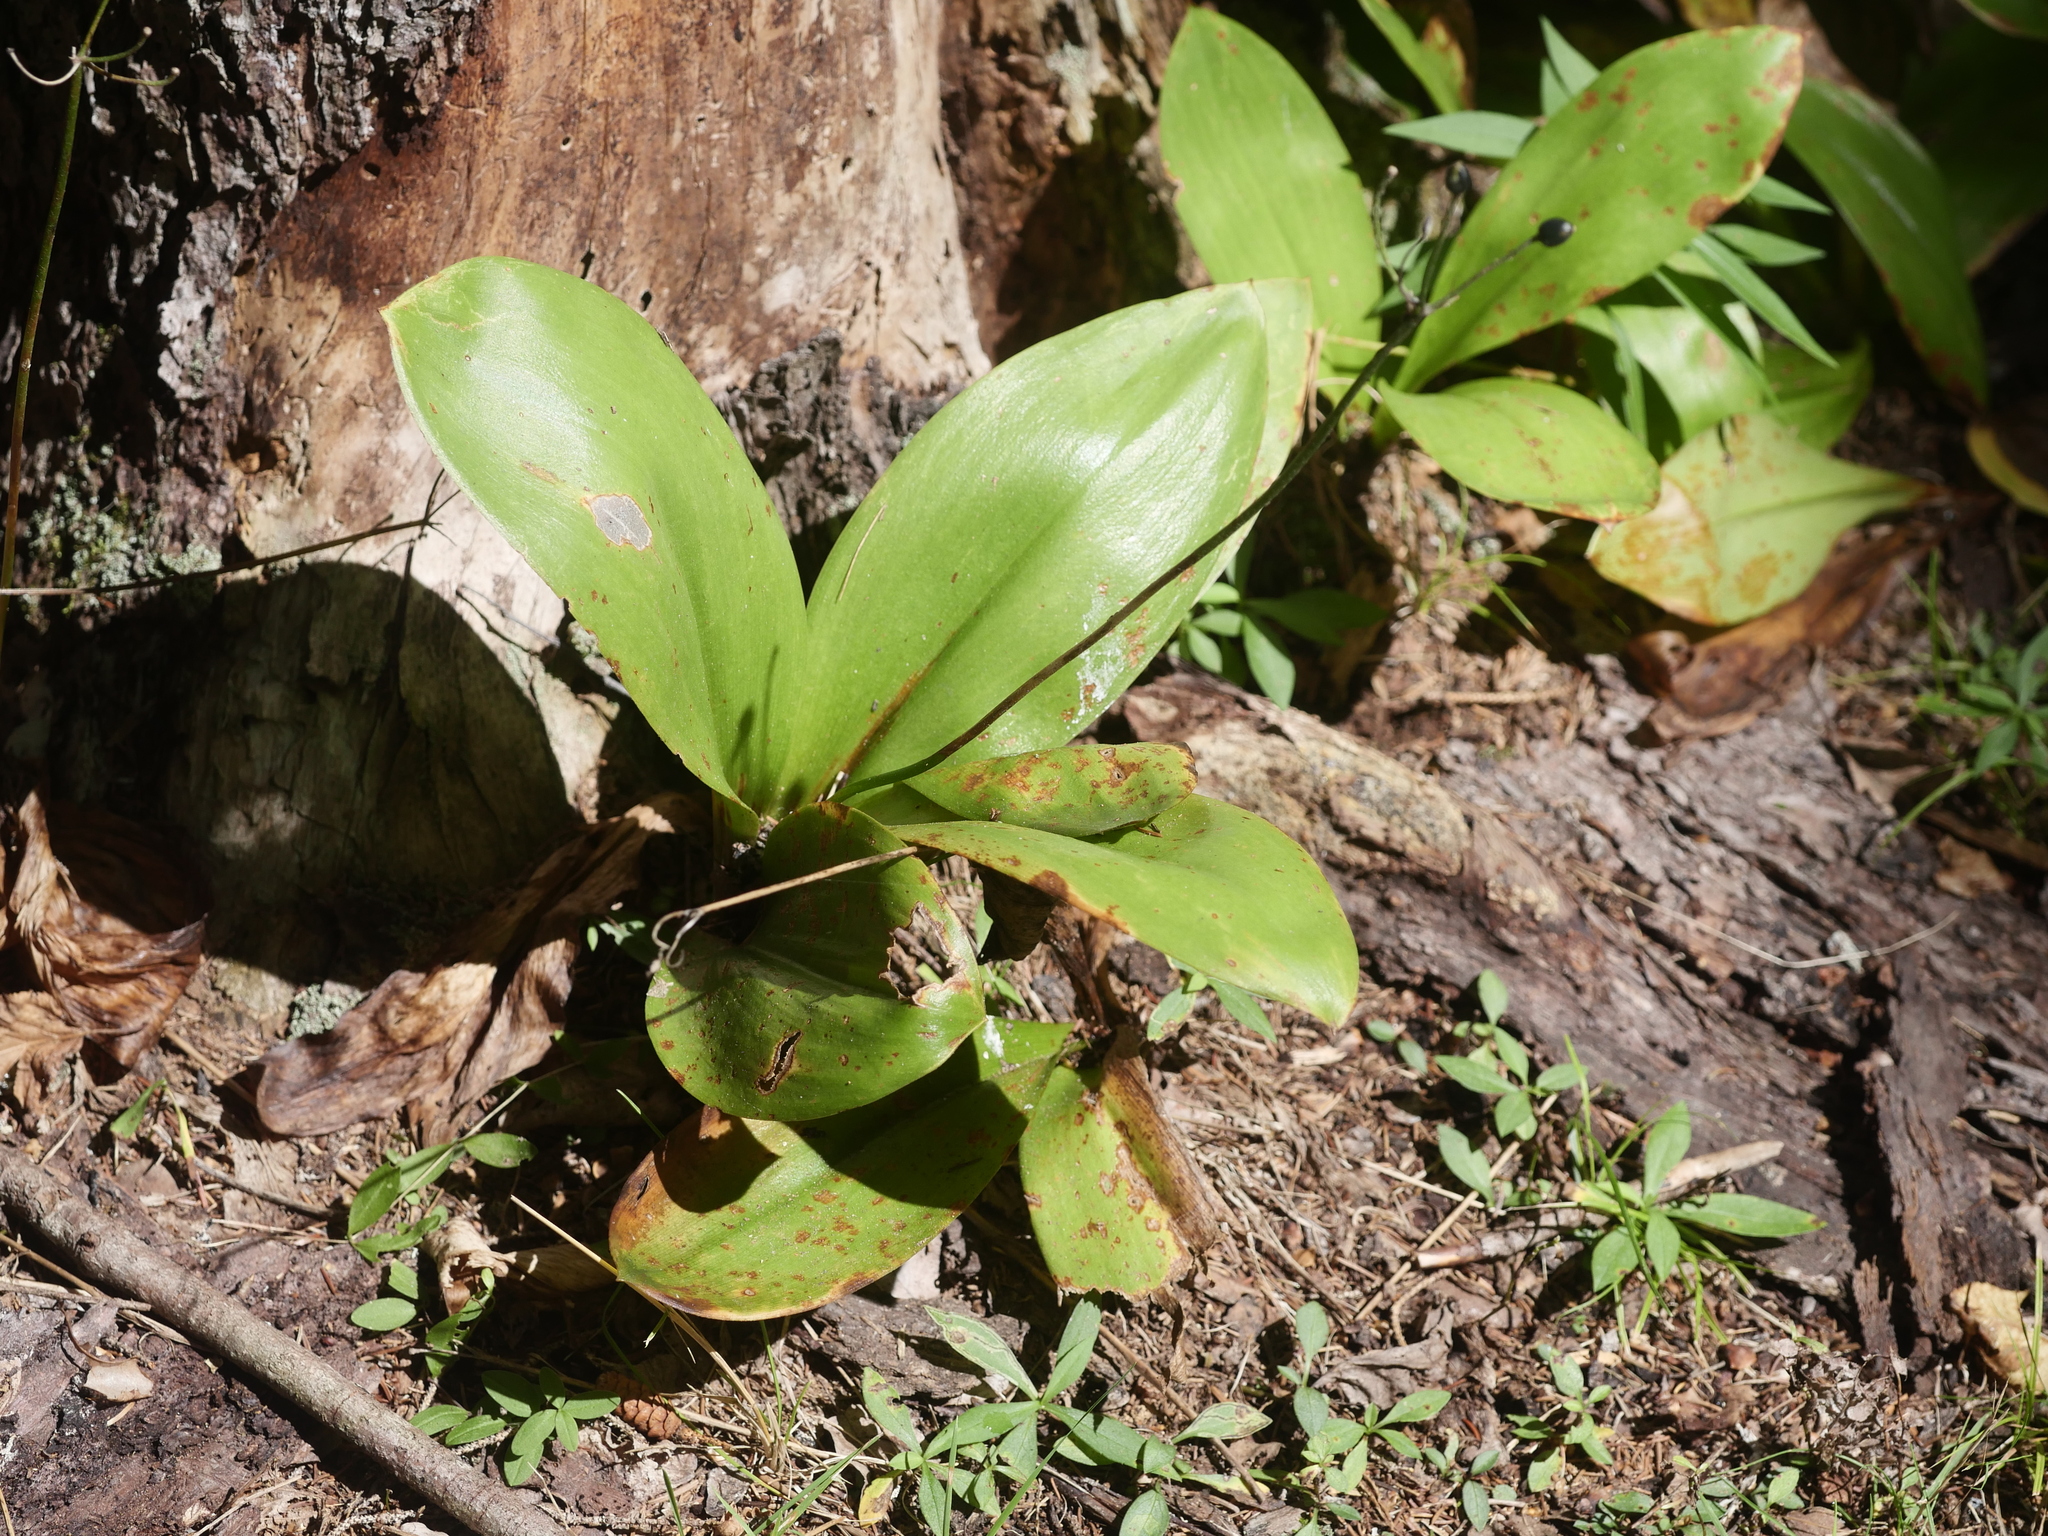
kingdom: Plantae
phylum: Tracheophyta
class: Liliopsida
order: Liliales
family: Liliaceae
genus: Clintonia
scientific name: Clintonia borealis
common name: Yellow clintonia
